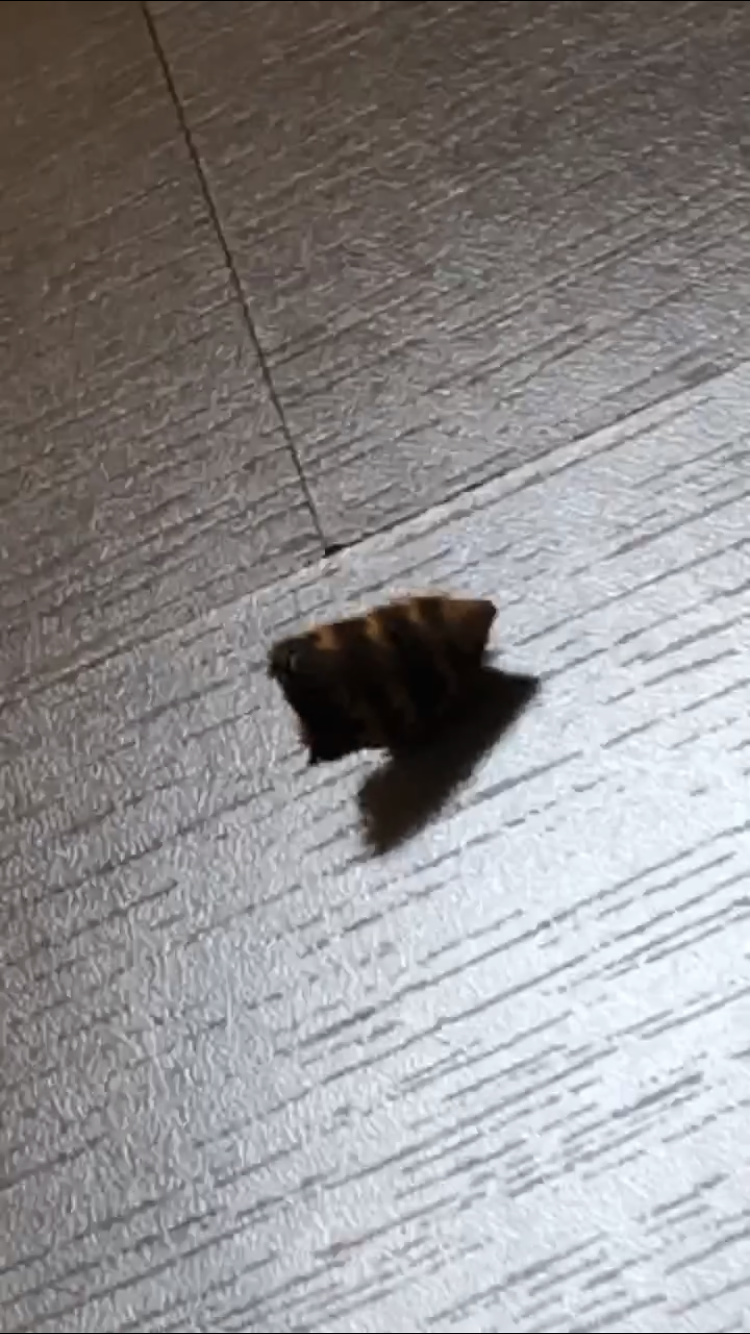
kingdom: Animalia
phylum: Arthropoda
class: Insecta
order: Hymenoptera
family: Vespidae
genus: Vespa
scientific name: Vespa crabro
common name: Hornet
